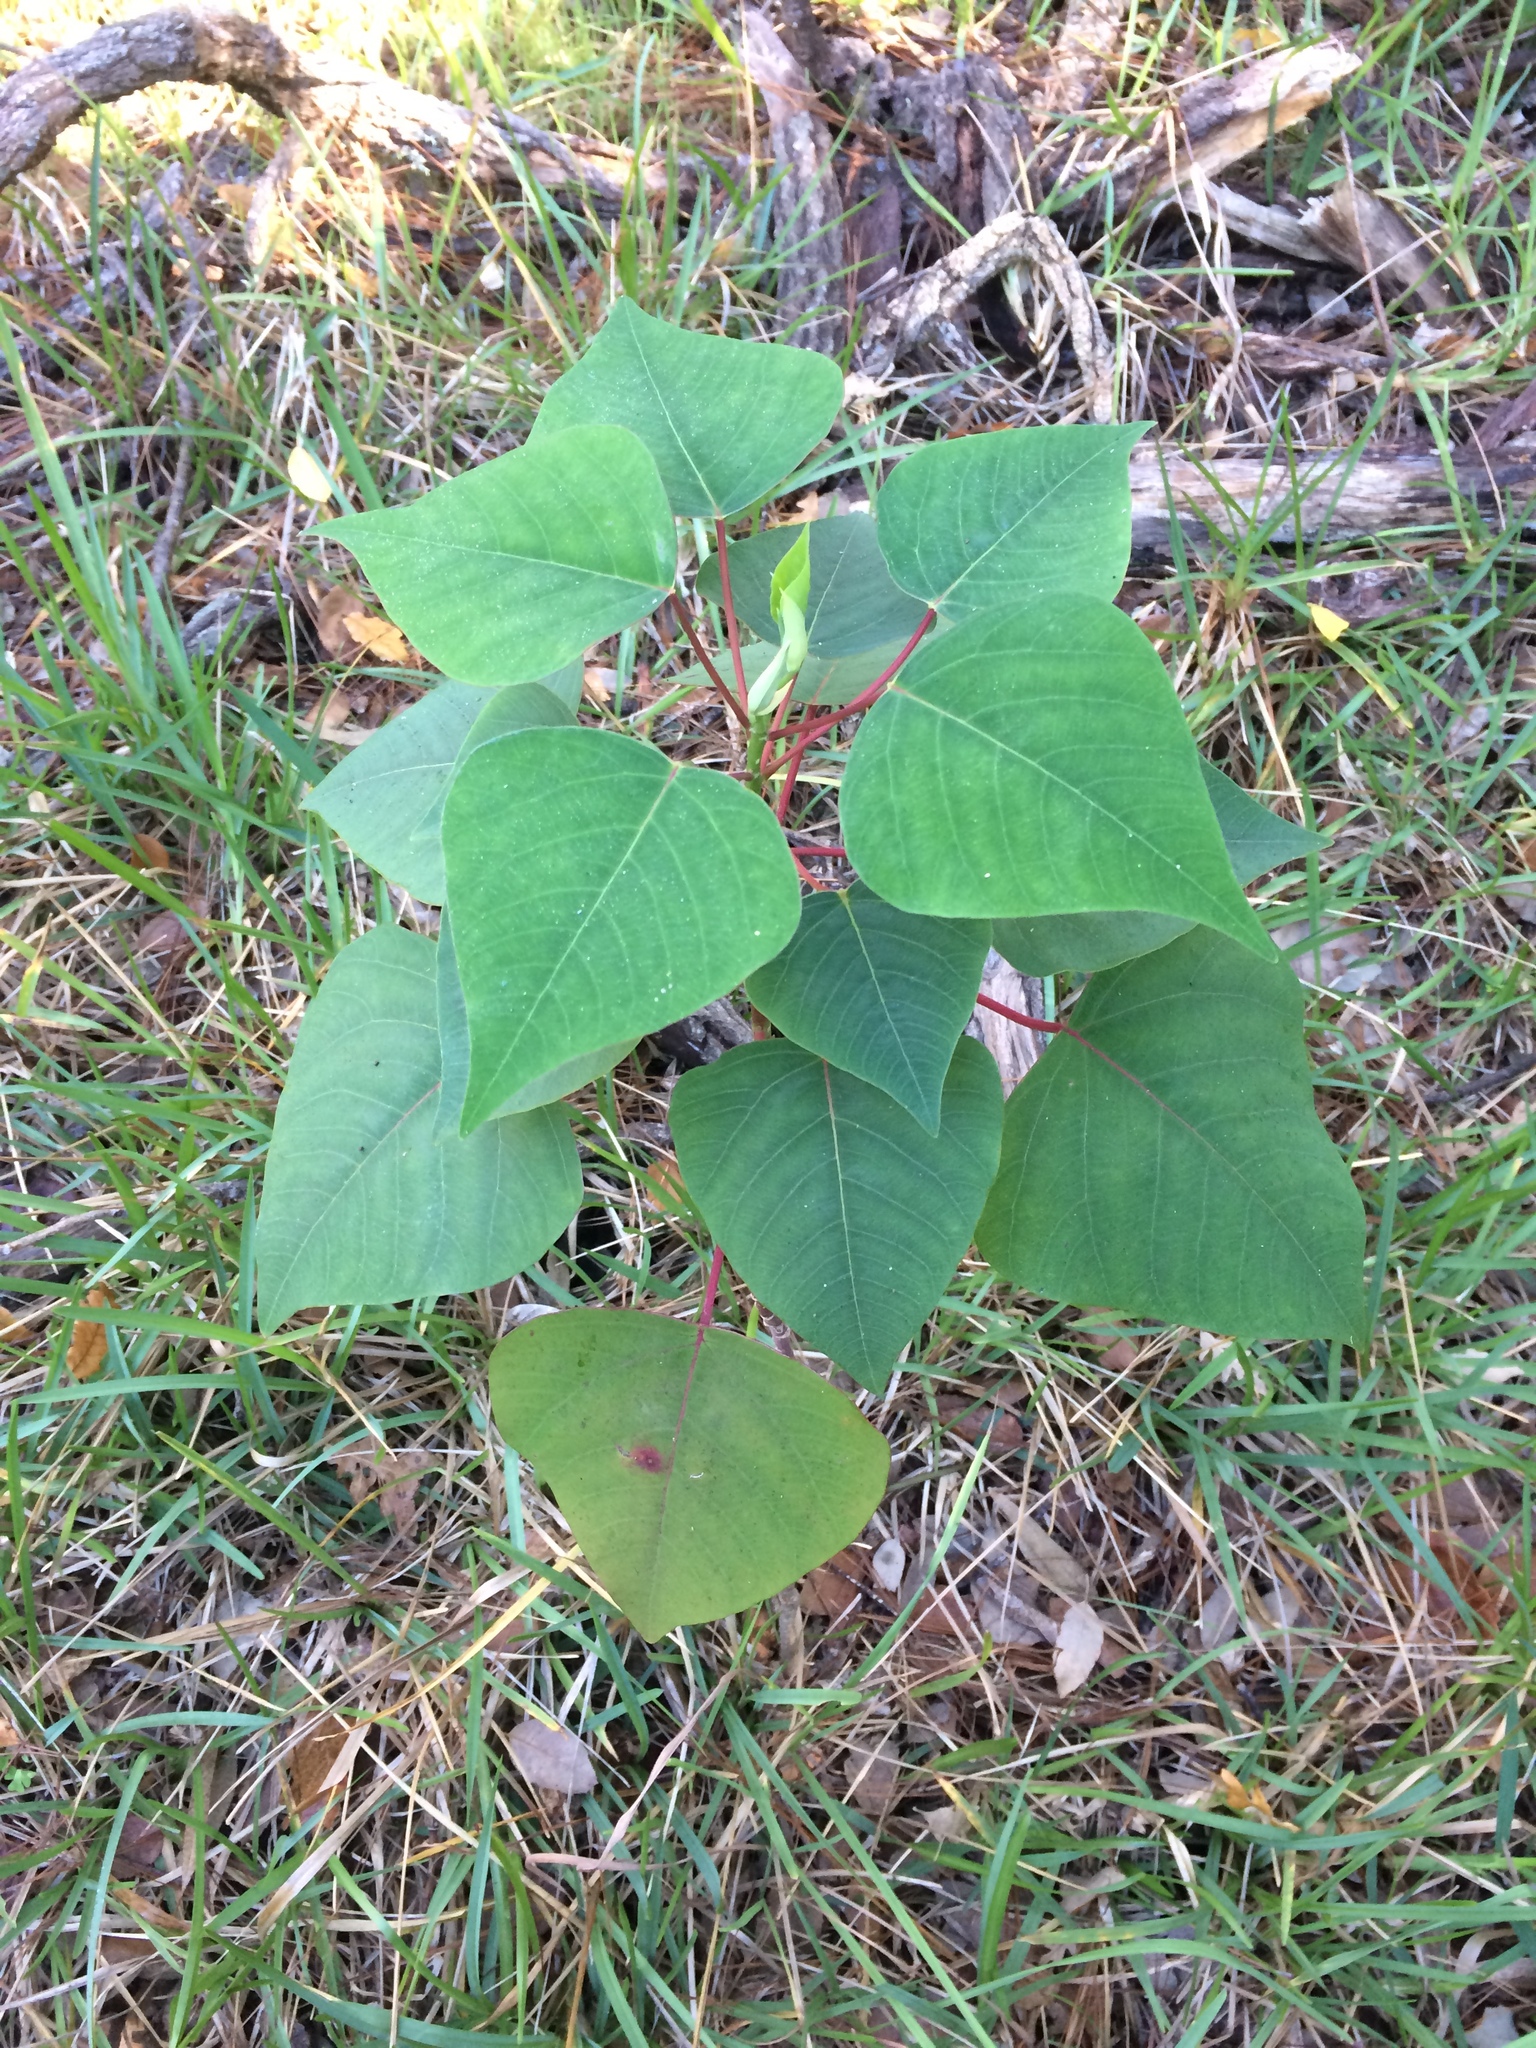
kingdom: Plantae
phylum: Tracheophyta
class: Magnoliopsida
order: Malpighiales
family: Euphorbiaceae
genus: Homalanthus
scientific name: Homalanthus populifolius
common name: Queensland poplar
